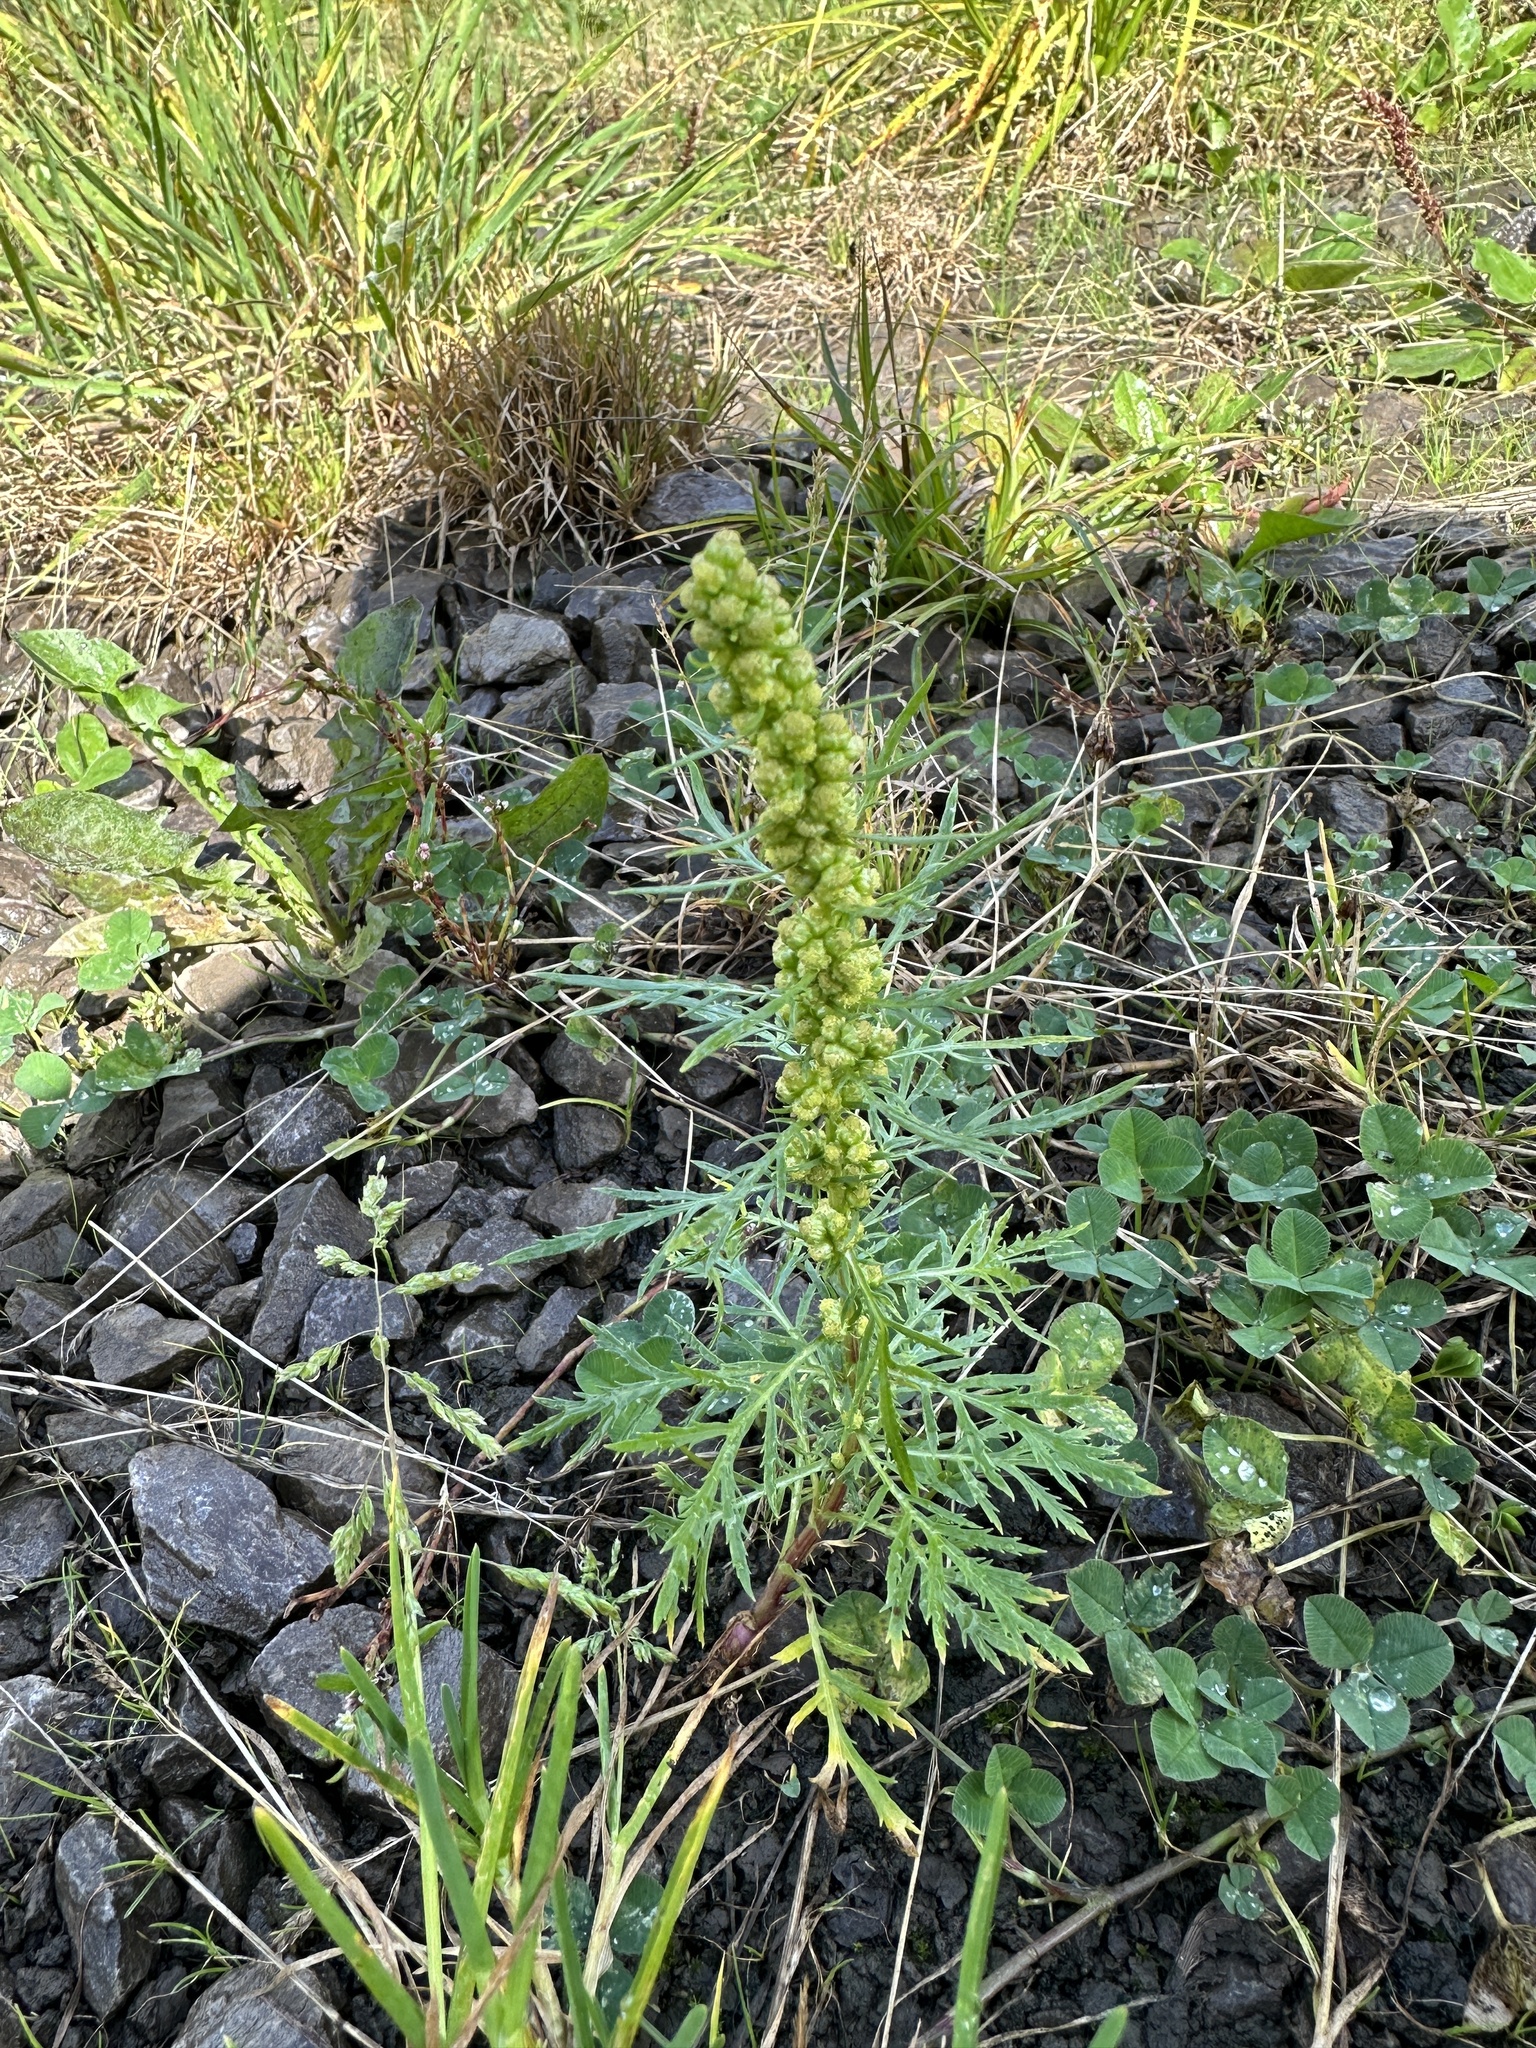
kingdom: Plantae
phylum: Tracheophyta
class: Magnoliopsida
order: Asterales
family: Asteraceae
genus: Artemisia
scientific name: Artemisia biennis
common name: Biennial wormwood
